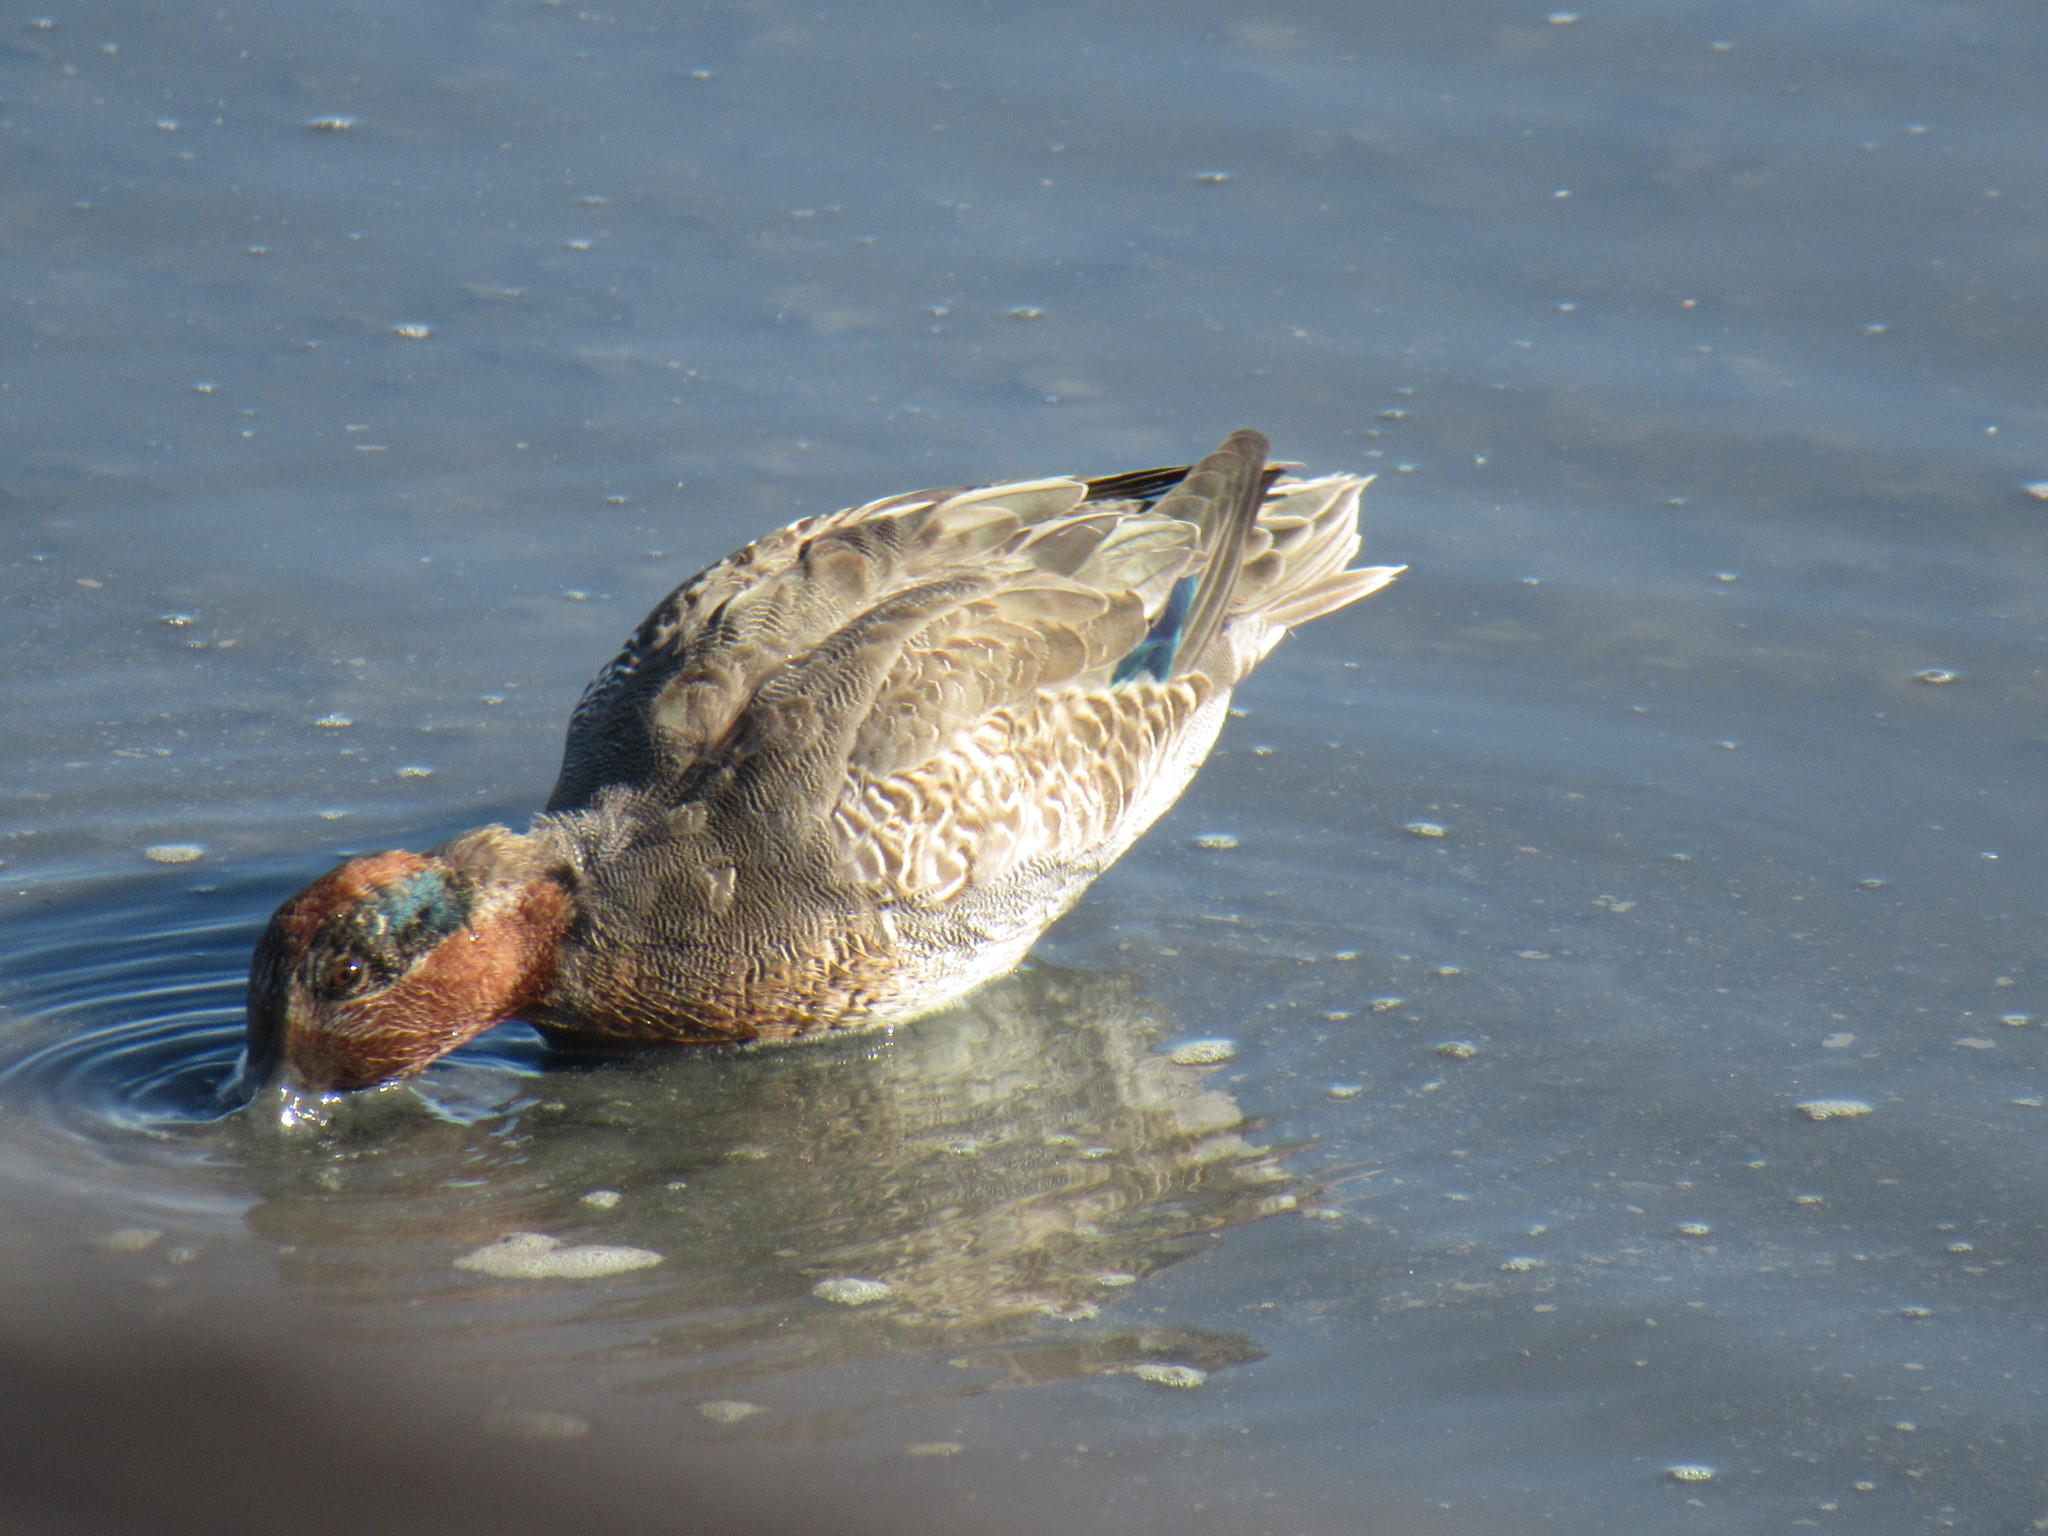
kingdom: Animalia
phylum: Chordata
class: Aves
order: Anseriformes
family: Anatidae
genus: Anas
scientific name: Anas crecca
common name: Eurasian teal
